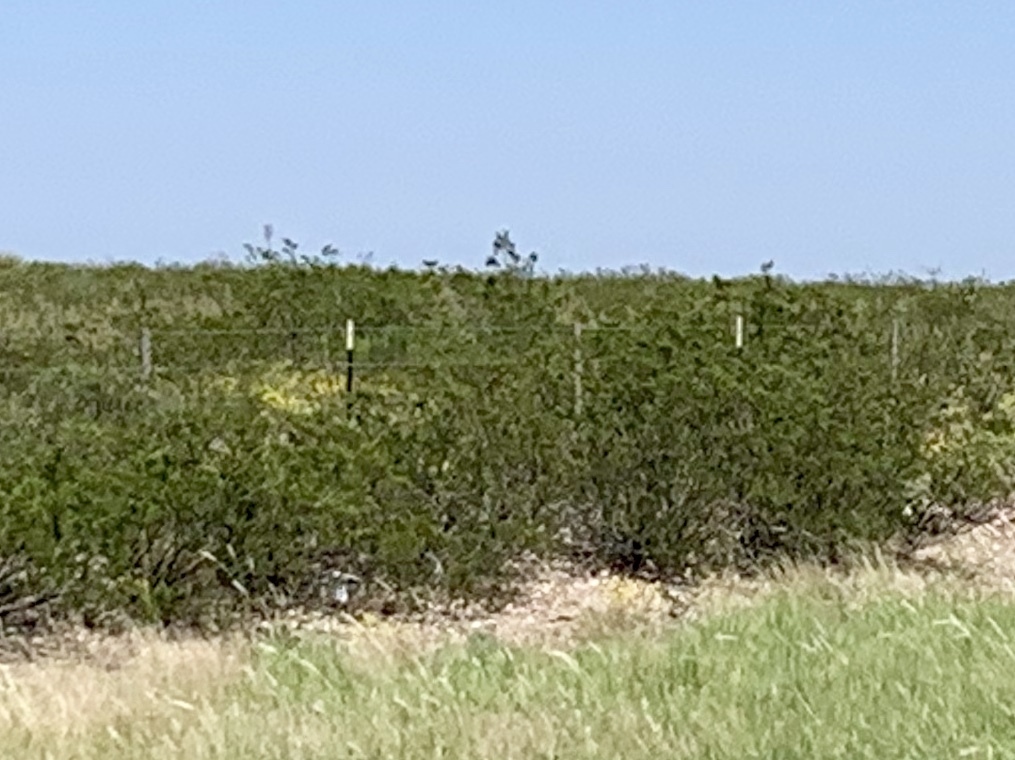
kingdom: Plantae
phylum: Tracheophyta
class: Magnoliopsida
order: Zygophyllales
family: Zygophyllaceae
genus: Larrea
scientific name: Larrea tridentata
